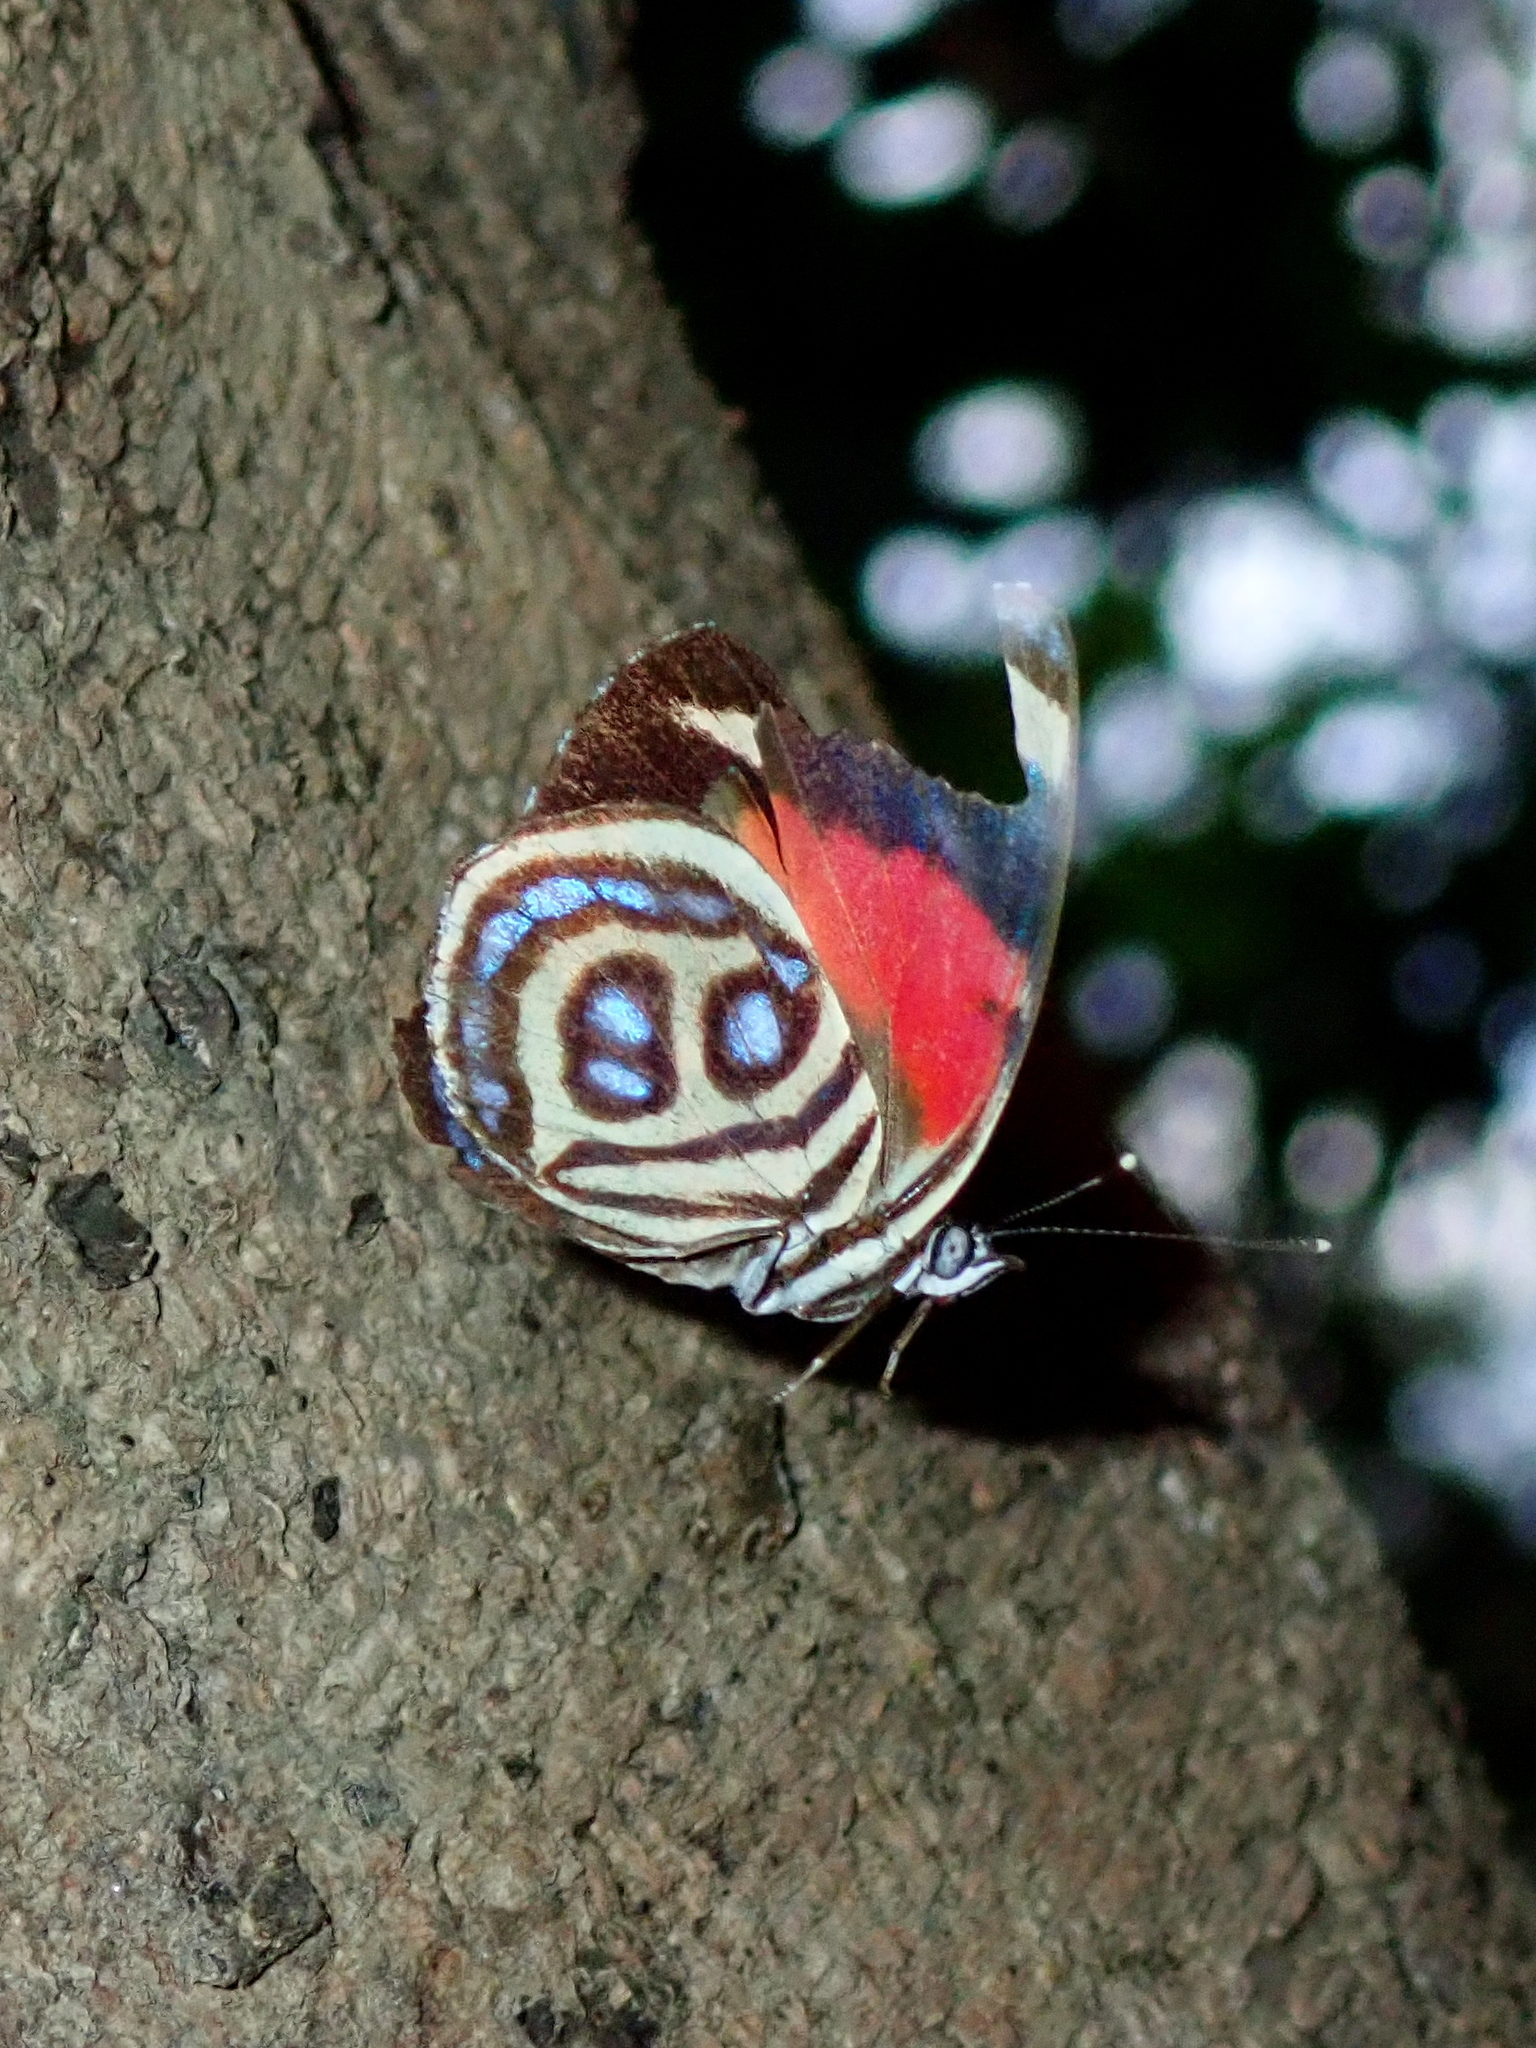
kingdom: Animalia
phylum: Arthropoda
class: Insecta
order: Lepidoptera
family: Nymphalidae
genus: Catagramma
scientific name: Catagramma pyracmon
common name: Google-eyed eighty-eight
